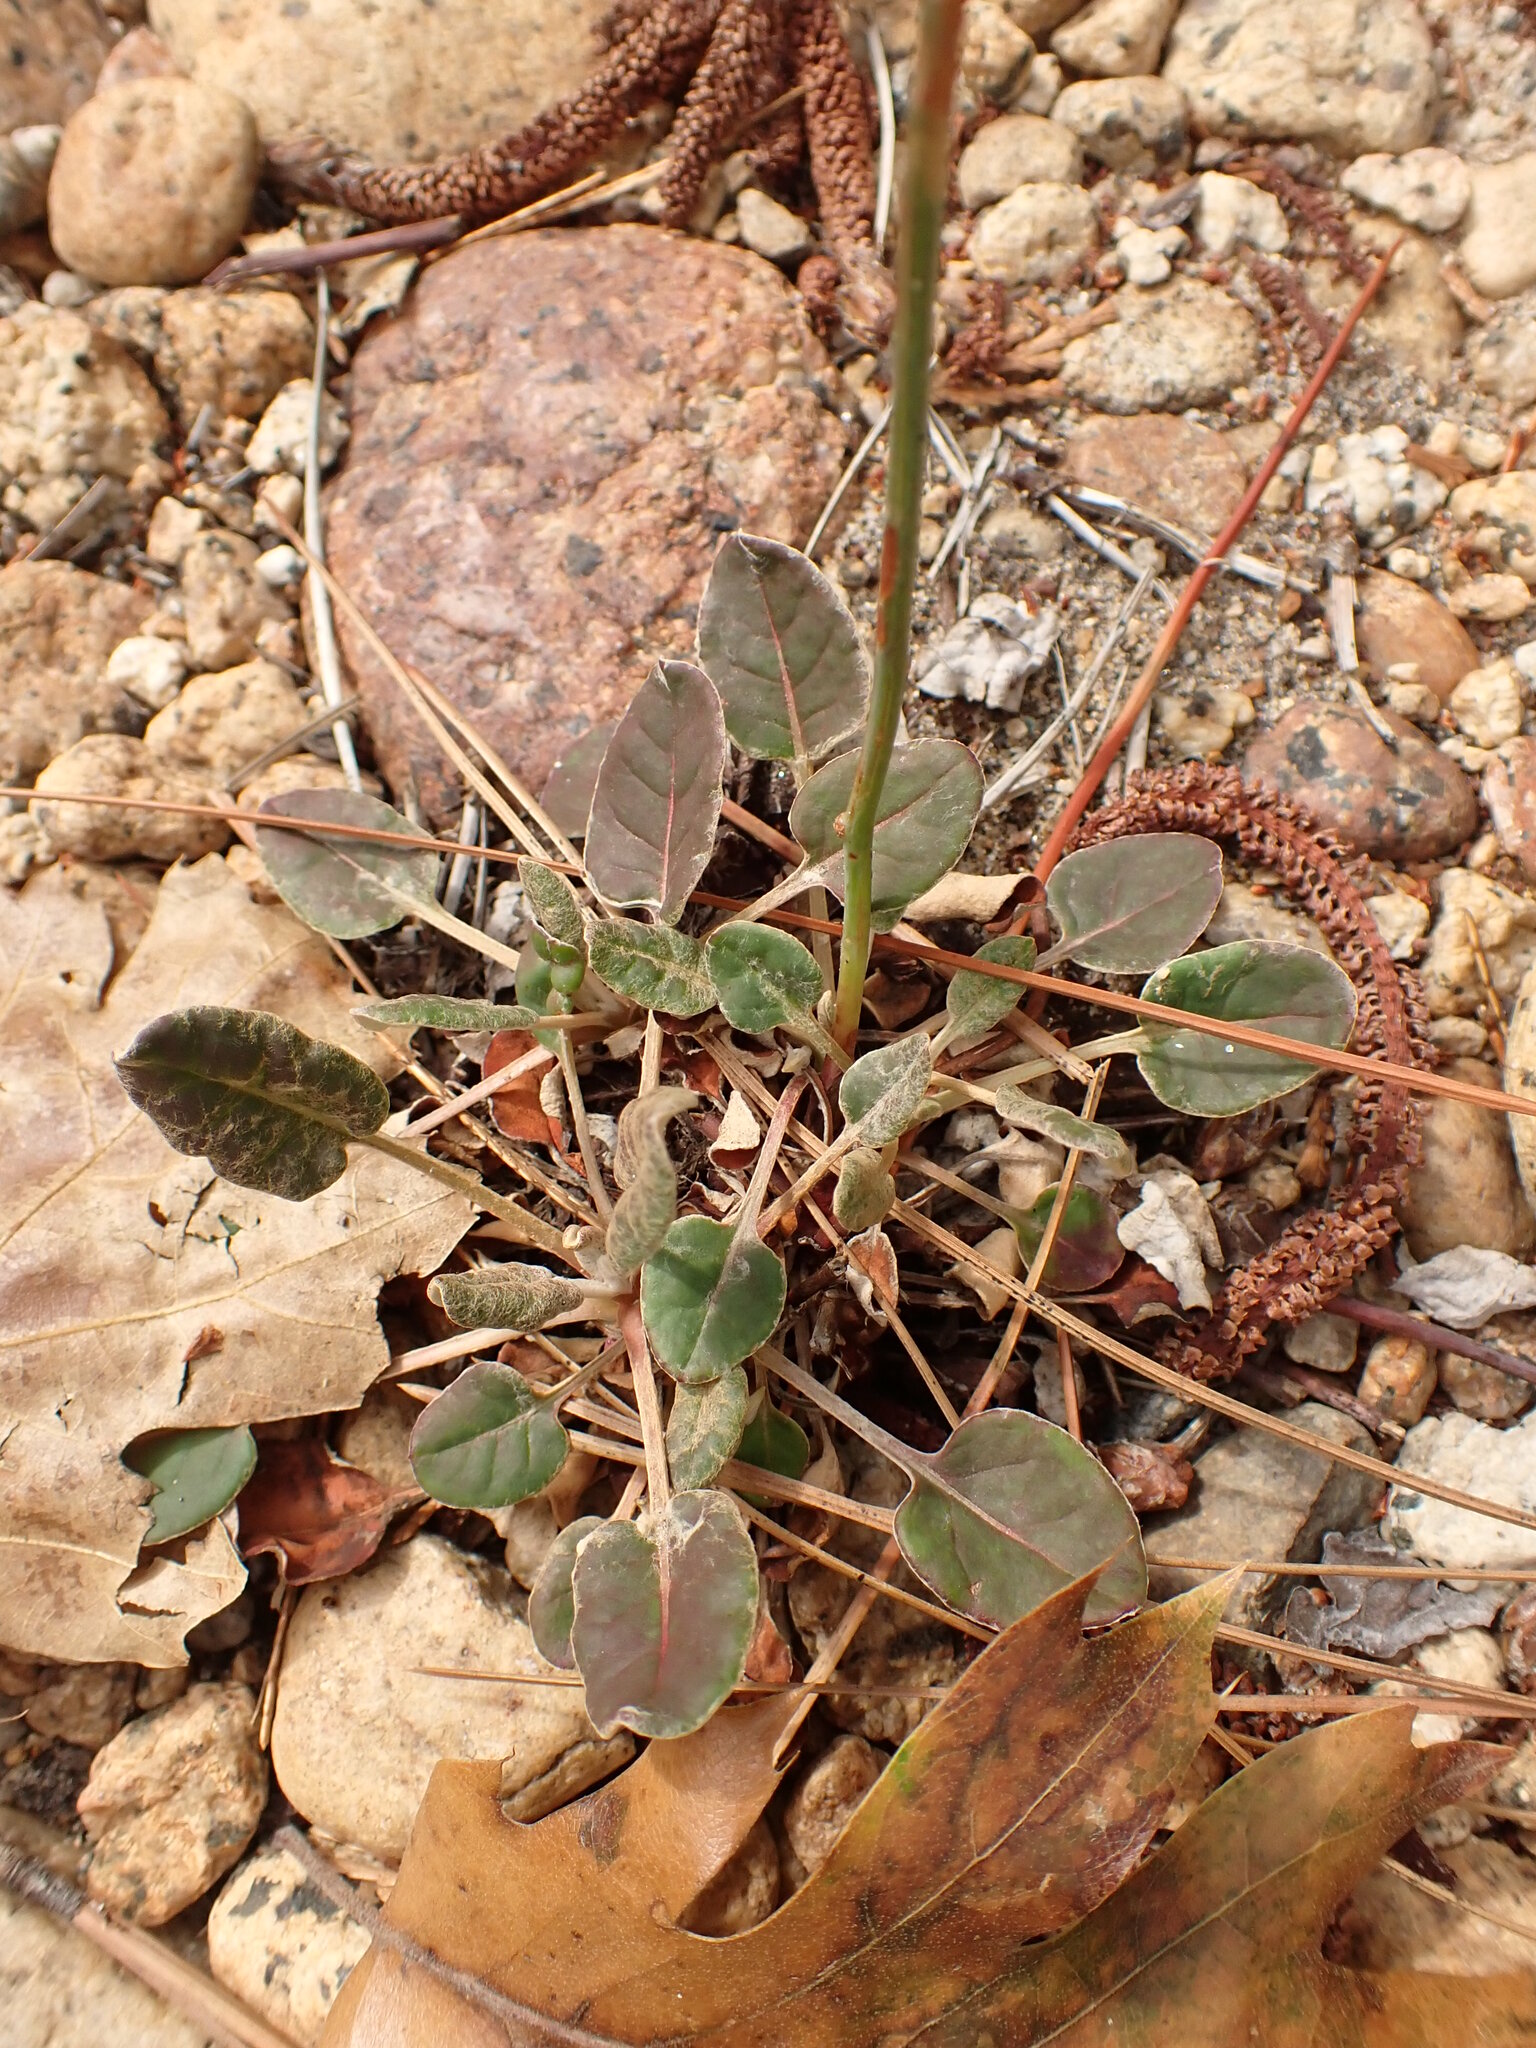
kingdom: Plantae
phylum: Tracheophyta
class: Magnoliopsida
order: Caryophyllales
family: Polygonaceae
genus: Eriogonum
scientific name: Eriogonum nudum
